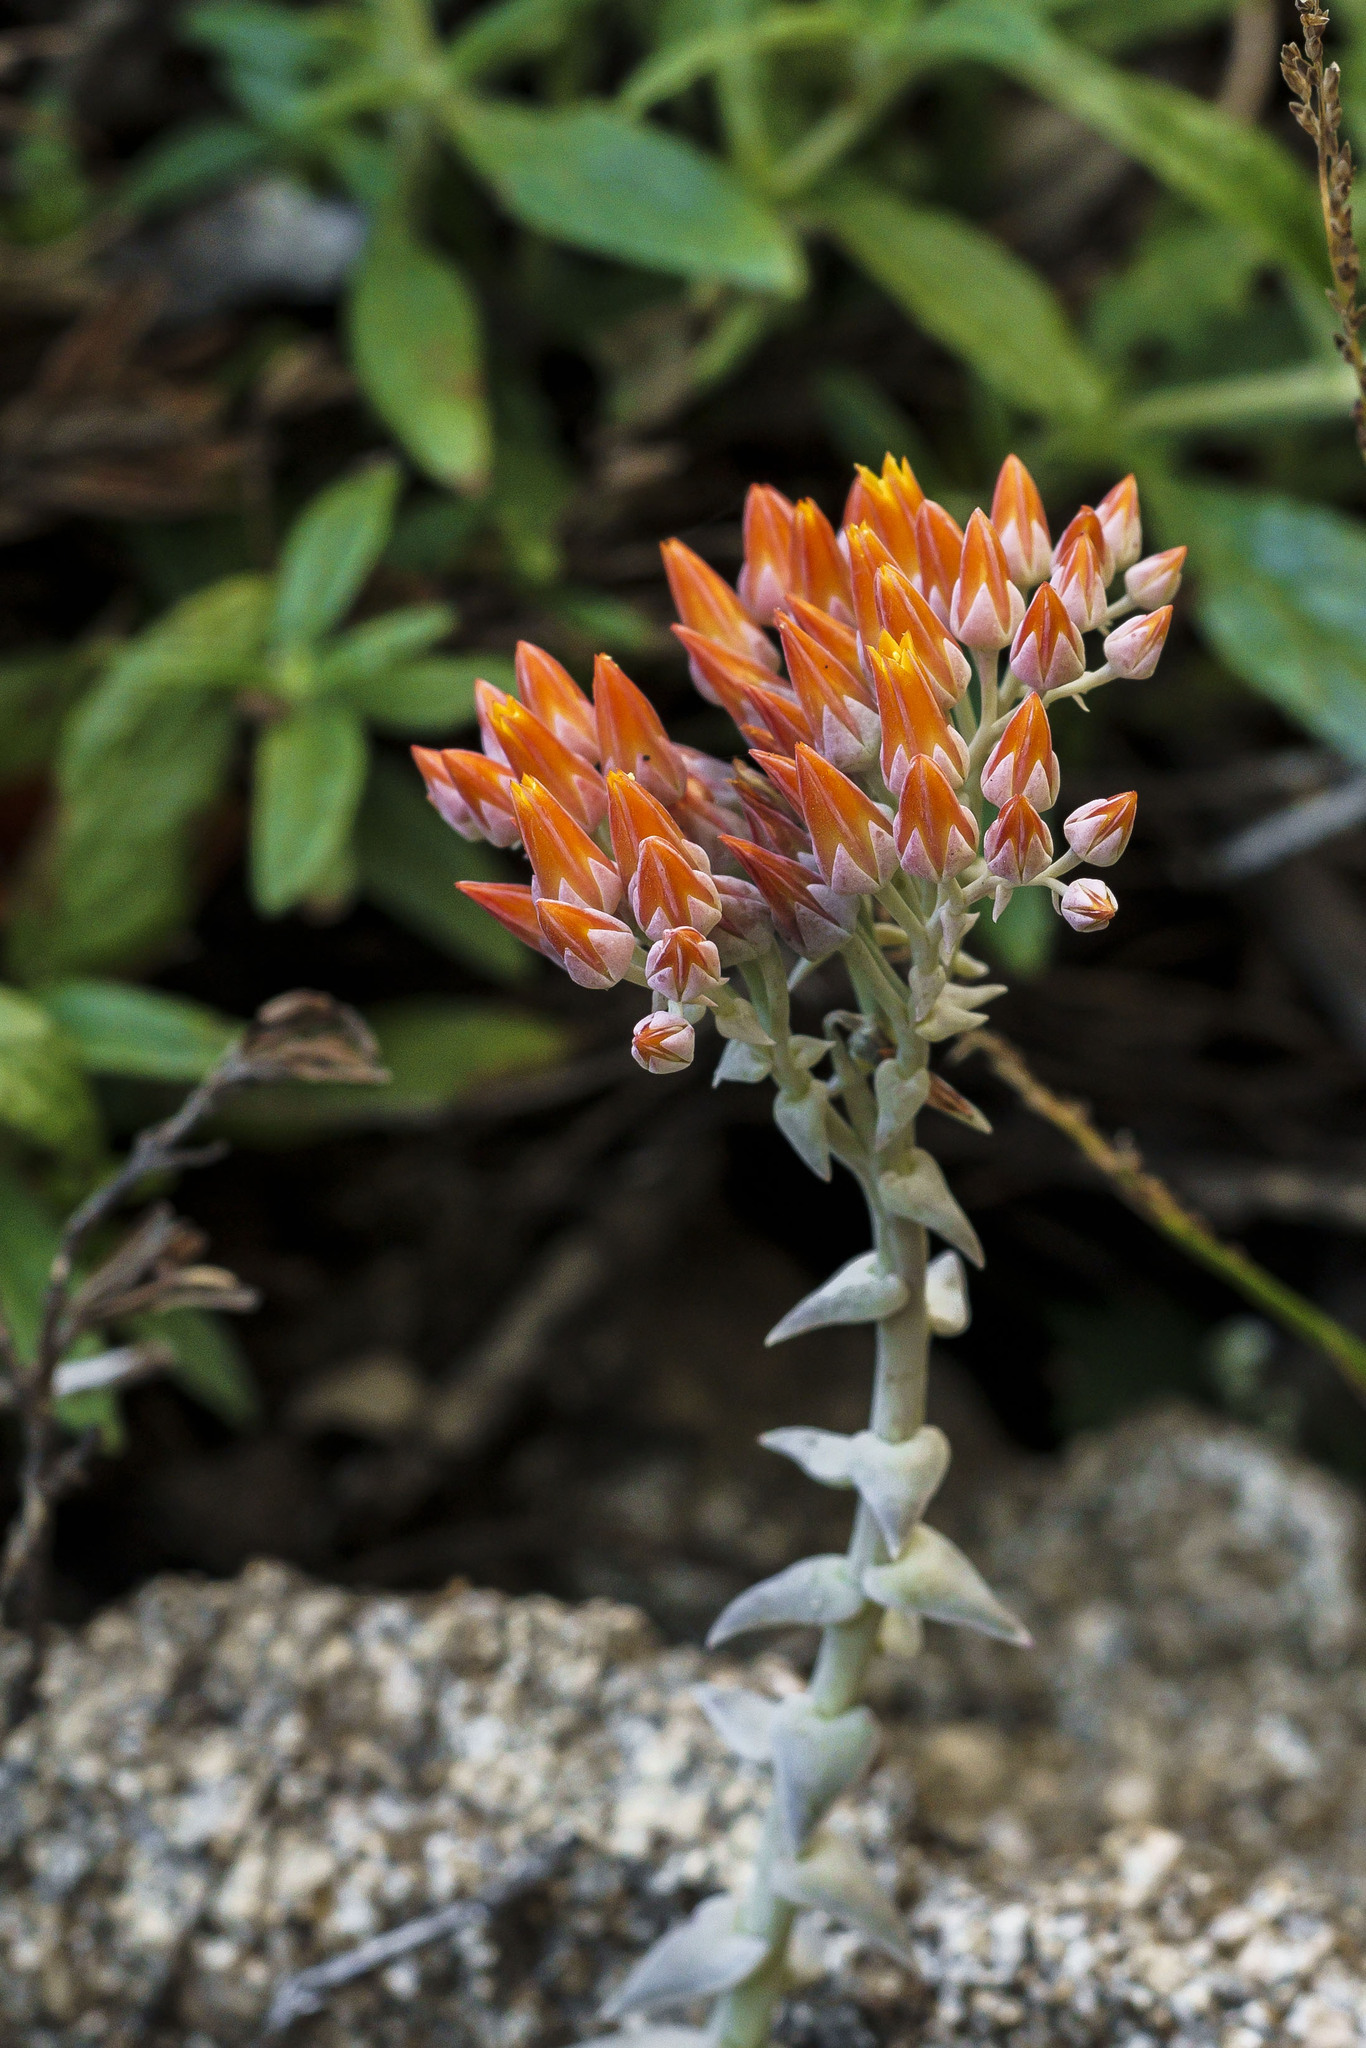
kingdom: Plantae
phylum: Tracheophyta
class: Magnoliopsida
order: Saxifragales
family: Crassulaceae
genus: Dudleya
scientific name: Dudleya cymosa
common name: Canyon dudleya
